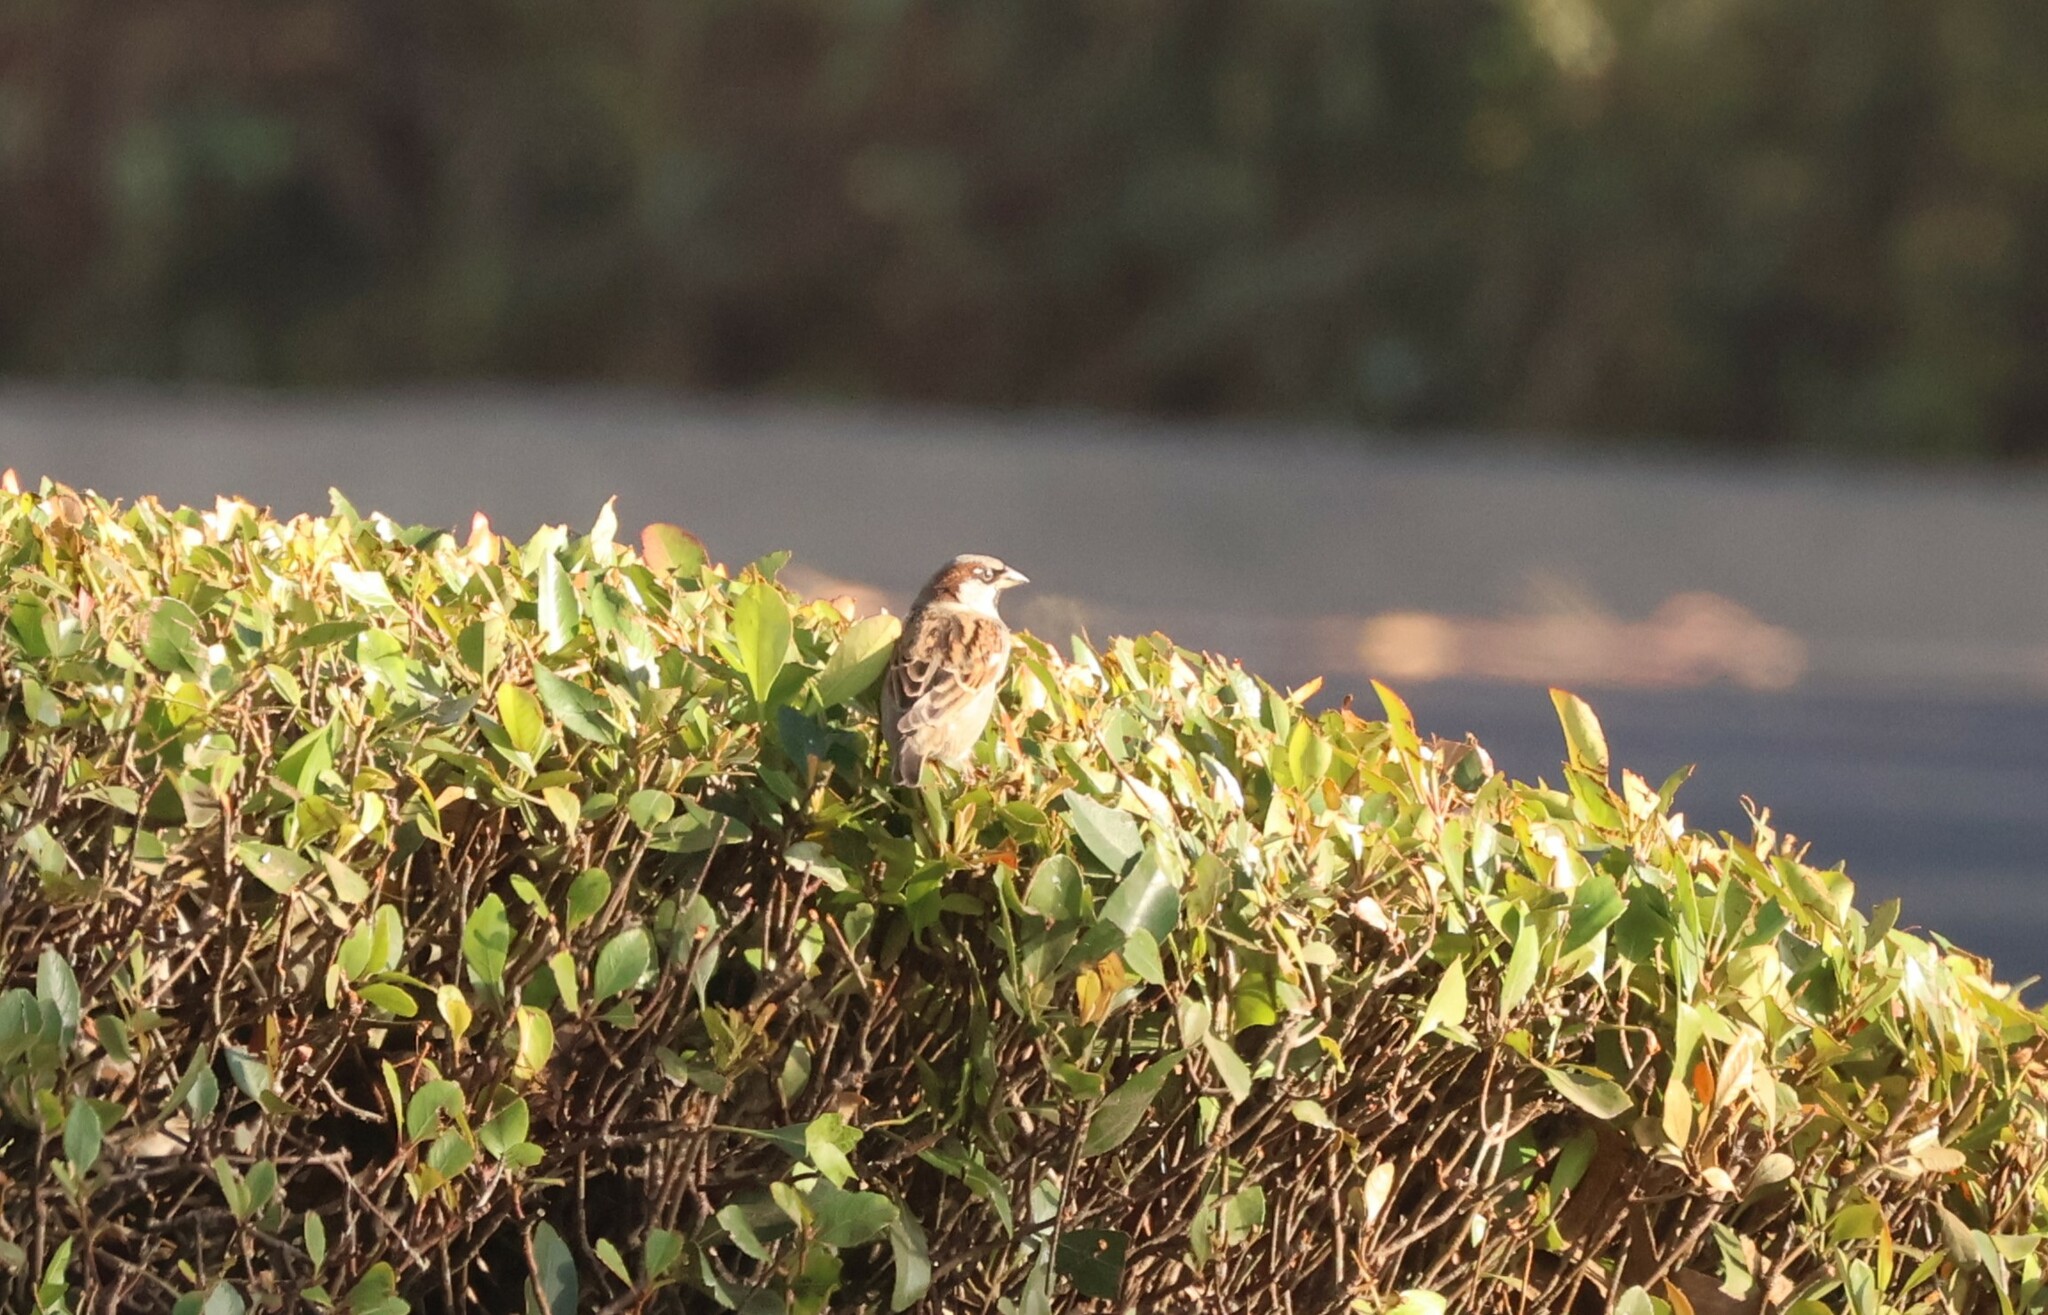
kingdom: Animalia
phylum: Chordata
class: Aves
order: Passeriformes
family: Passeridae
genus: Passer
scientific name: Passer domesticus
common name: House sparrow
